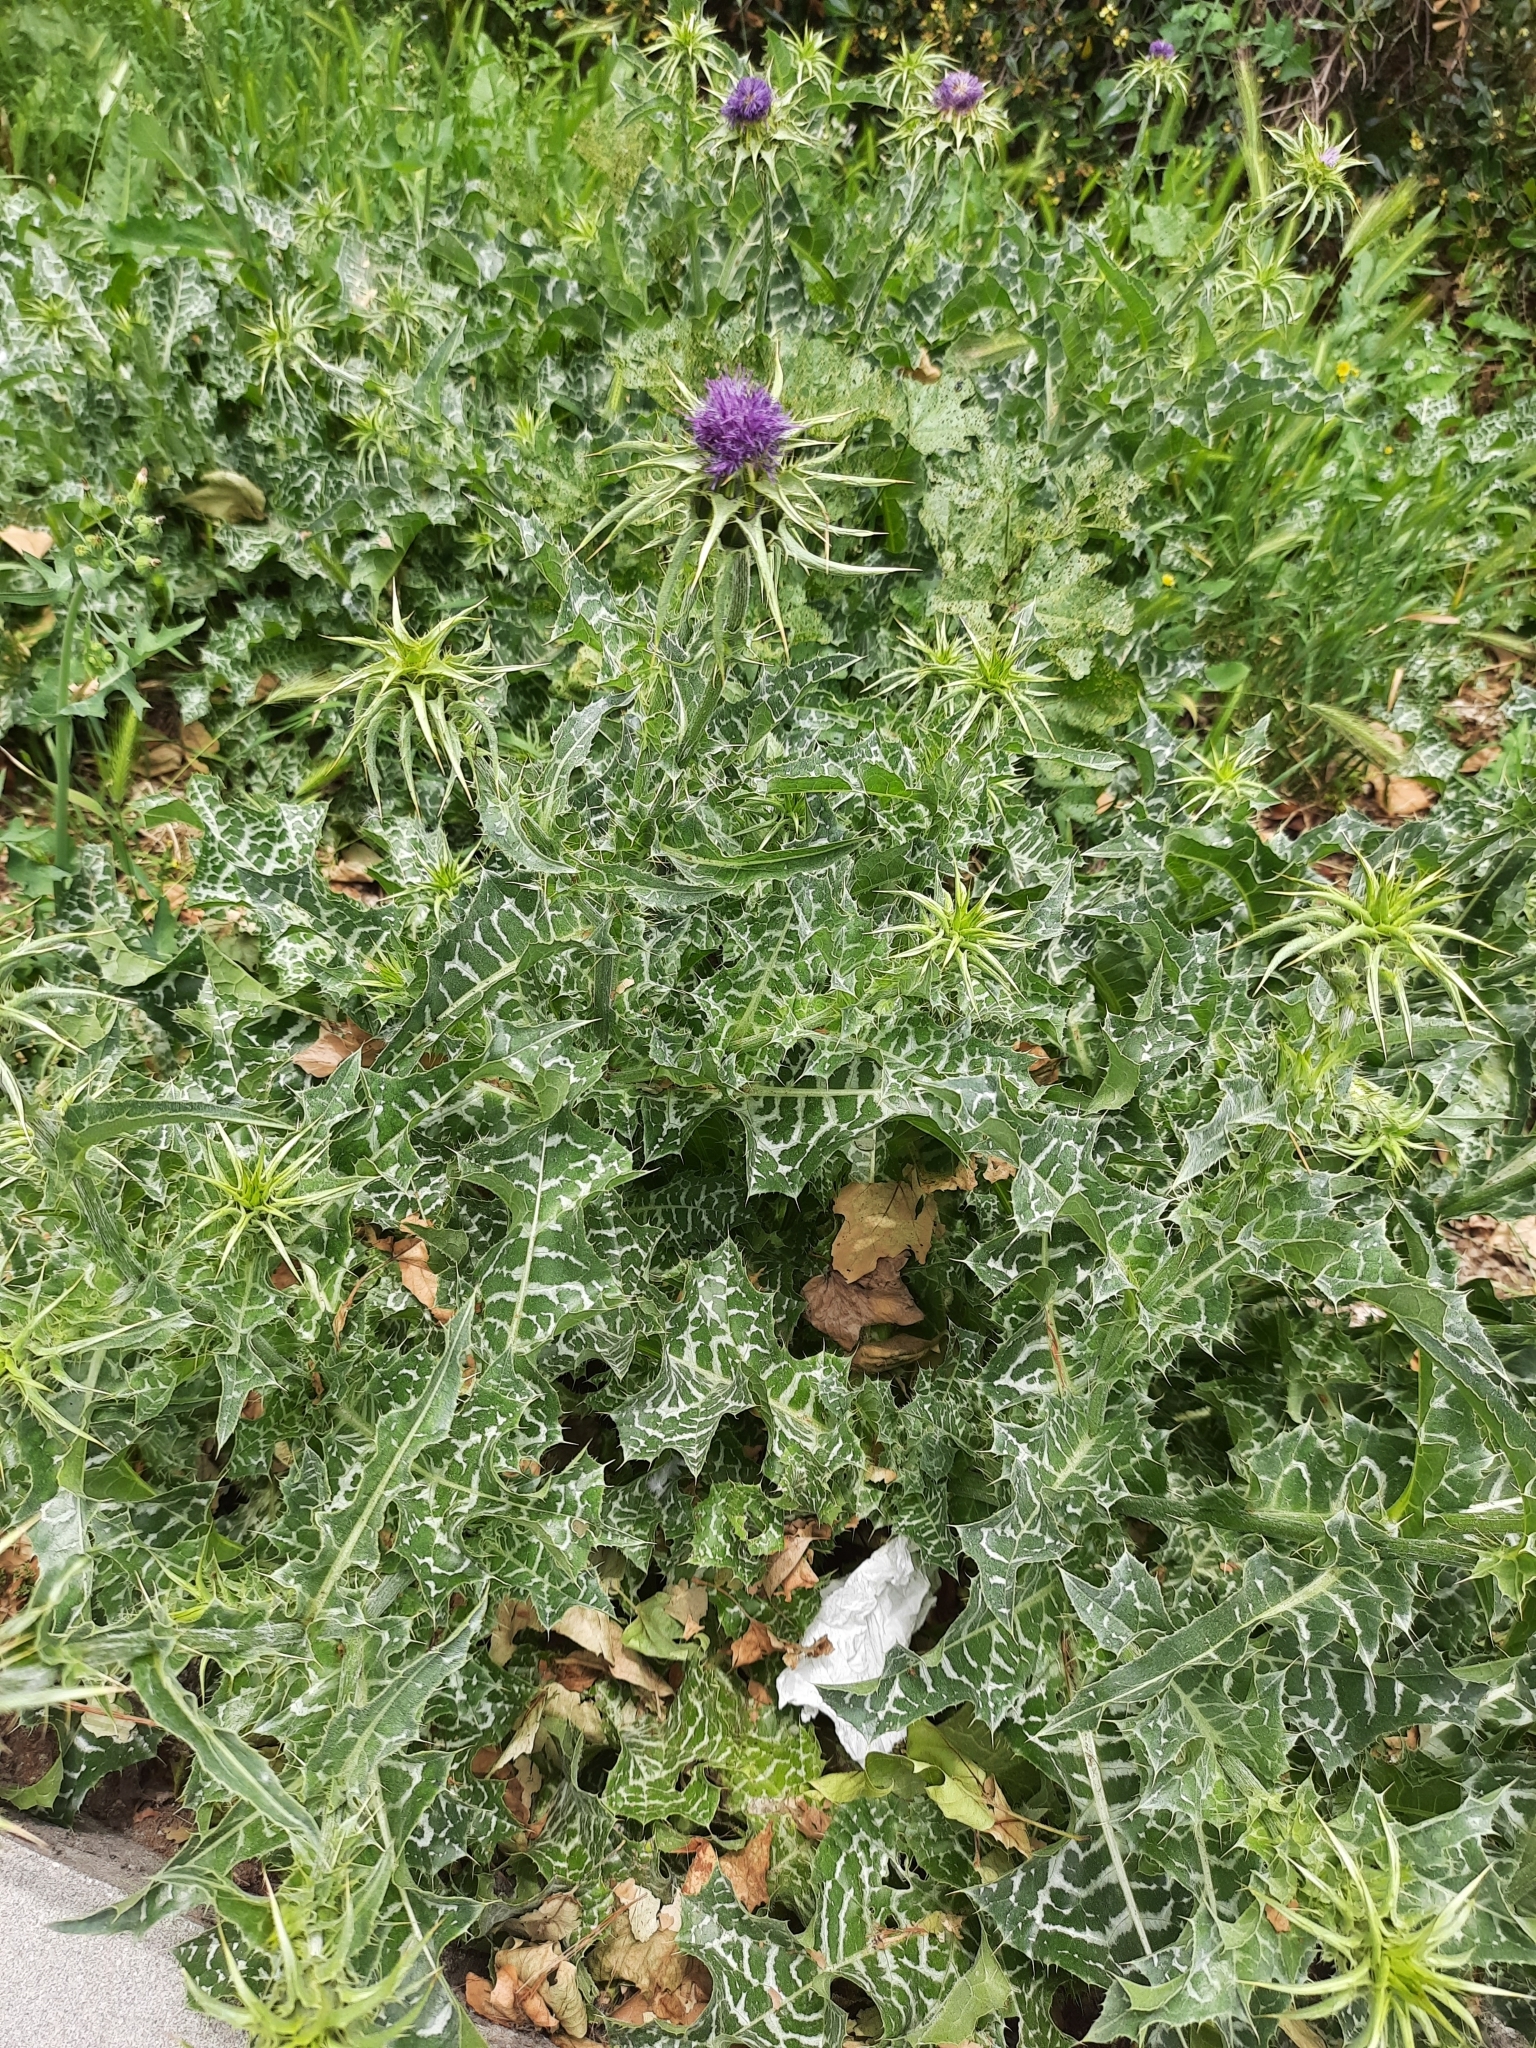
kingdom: Plantae
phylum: Tracheophyta
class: Magnoliopsida
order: Asterales
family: Asteraceae
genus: Silybum
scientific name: Silybum marianum
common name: Milk thistle
